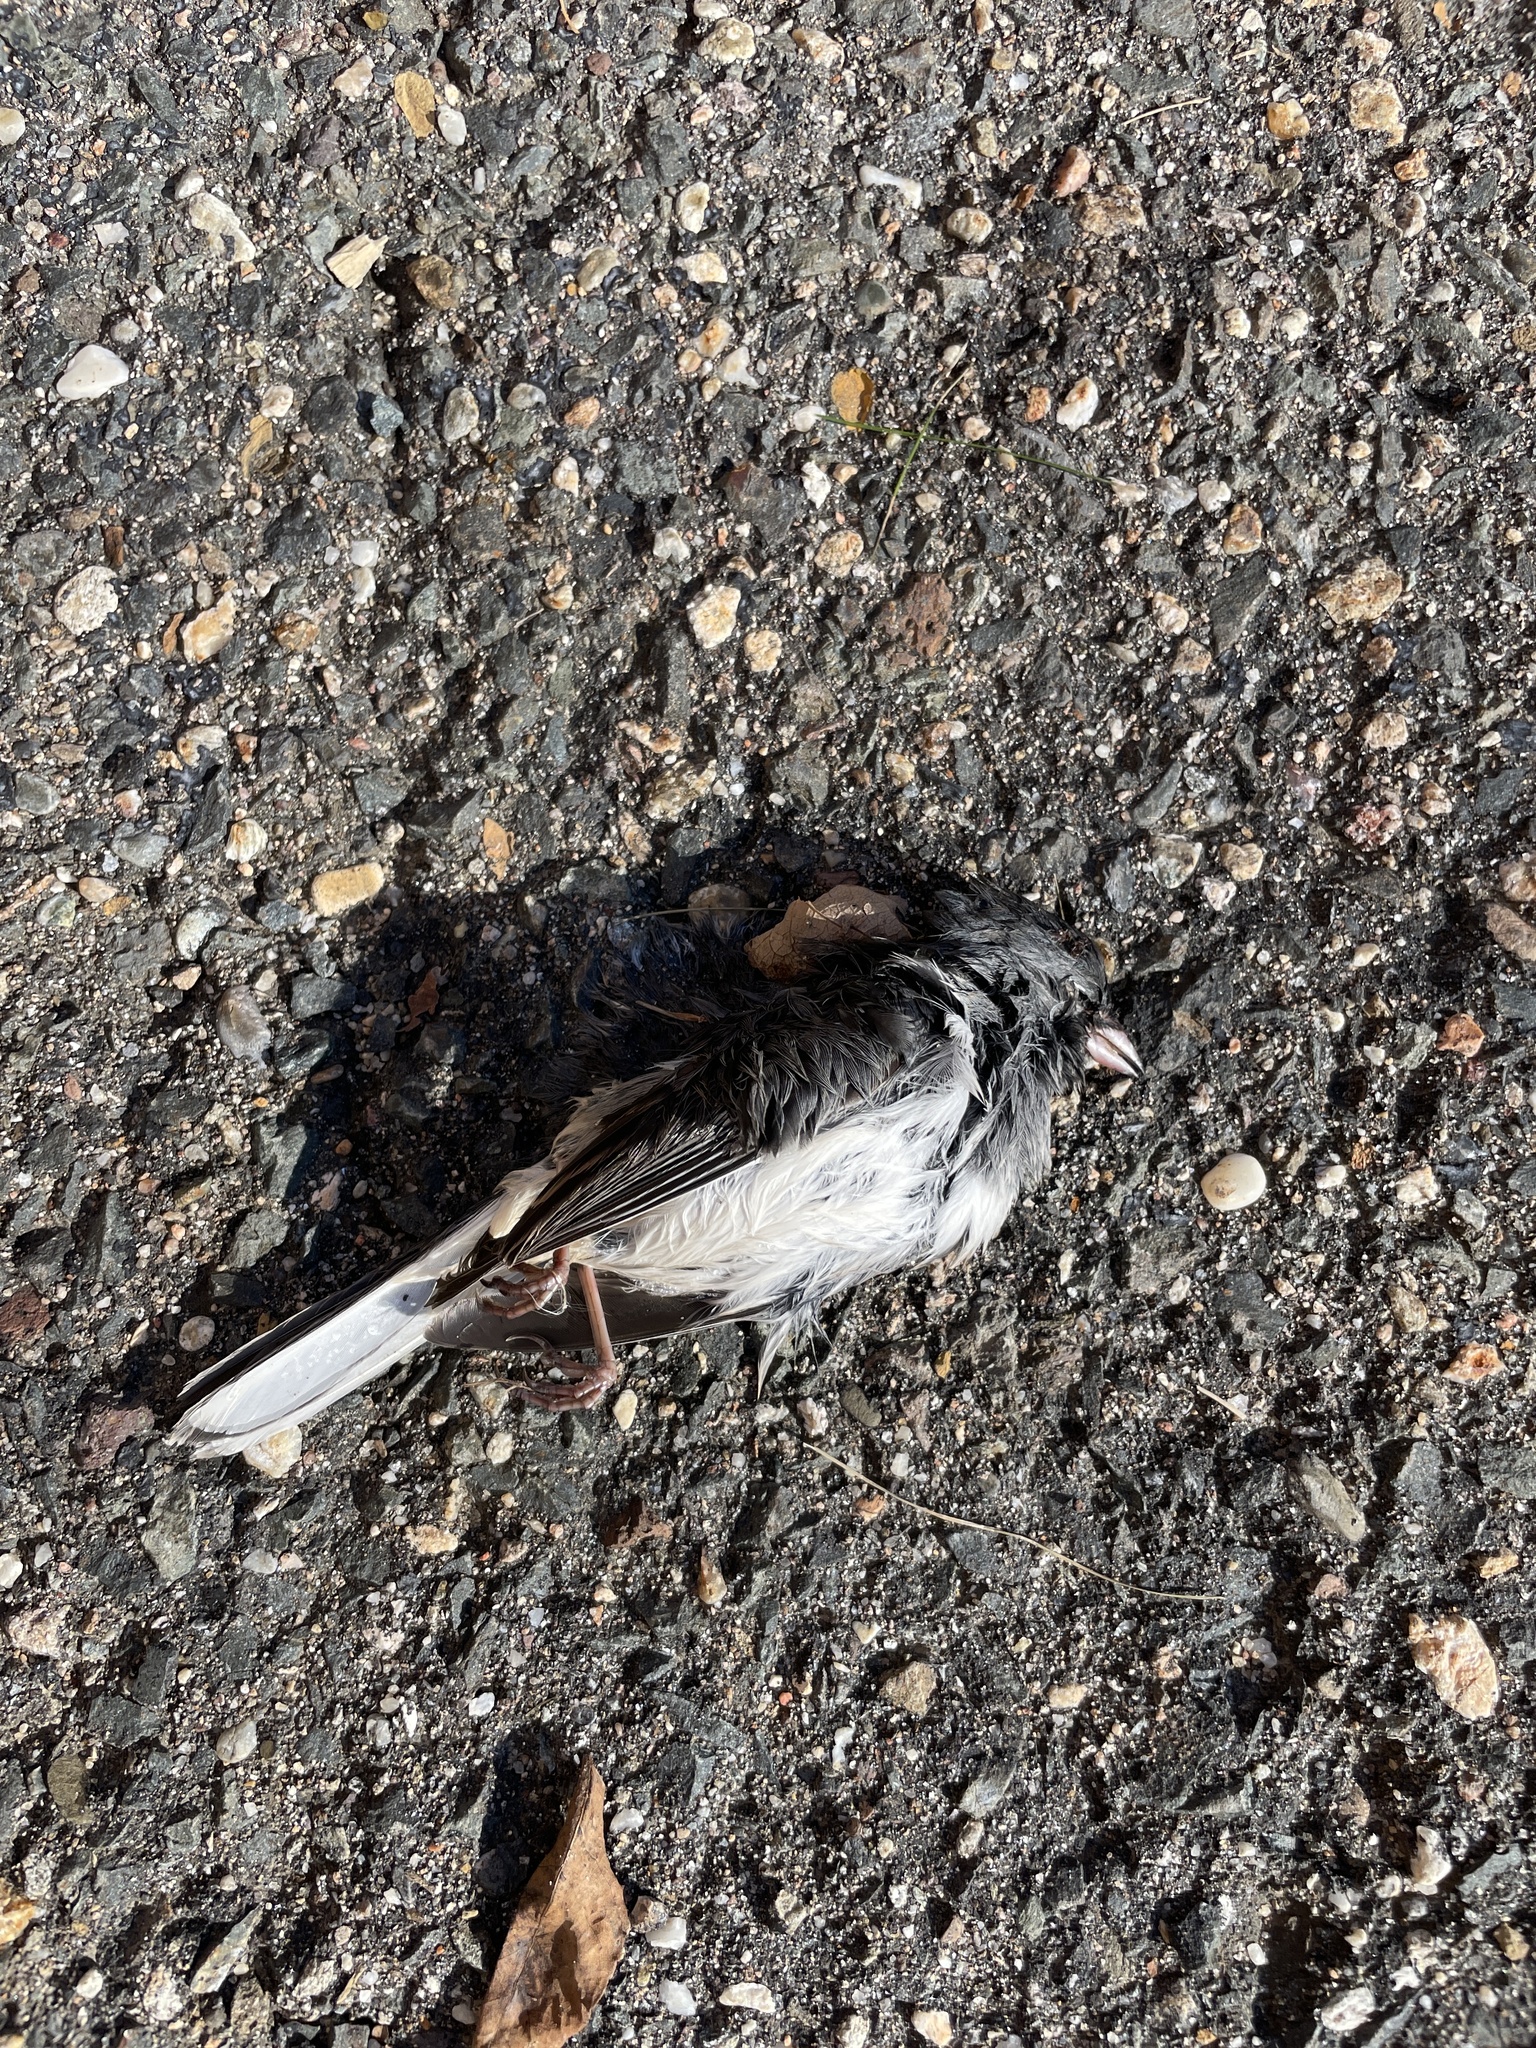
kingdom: Animalia
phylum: Chordata
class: Aves
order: Passeriformes
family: Passerellidae
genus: Junco
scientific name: Junco hyemalis
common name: Dark-eyed junco
